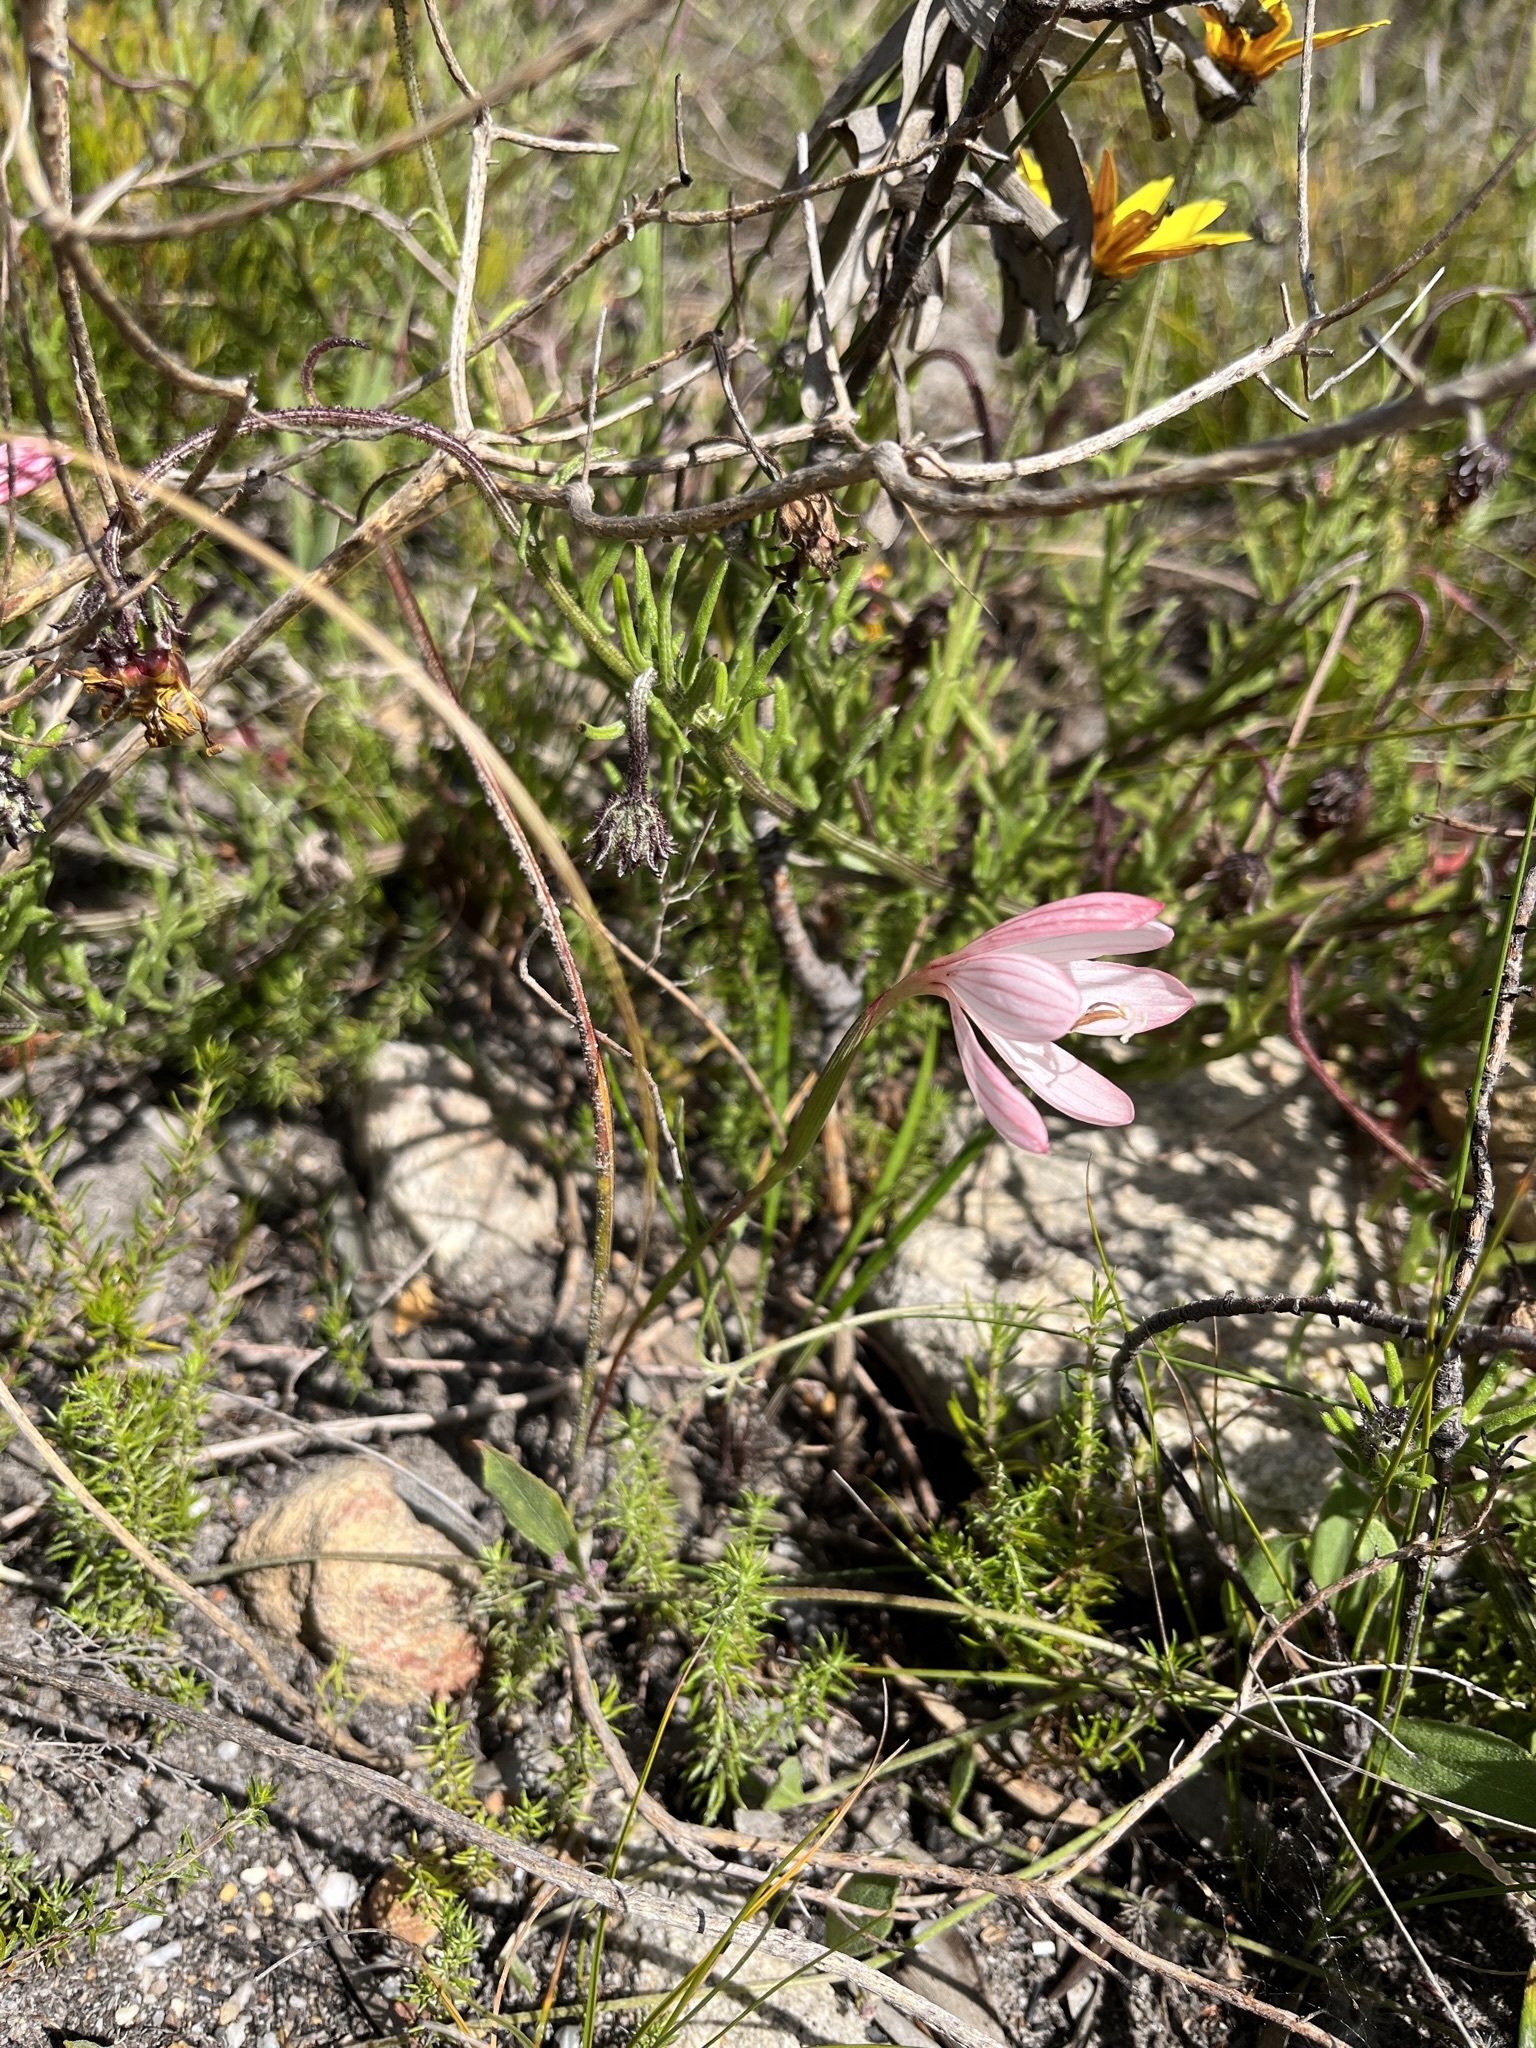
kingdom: Plantae
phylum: Tracheophyta
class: Liliopsida
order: Asparagales
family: Iridaceae
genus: Geissorhiza
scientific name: Geissorhiza schinzii
